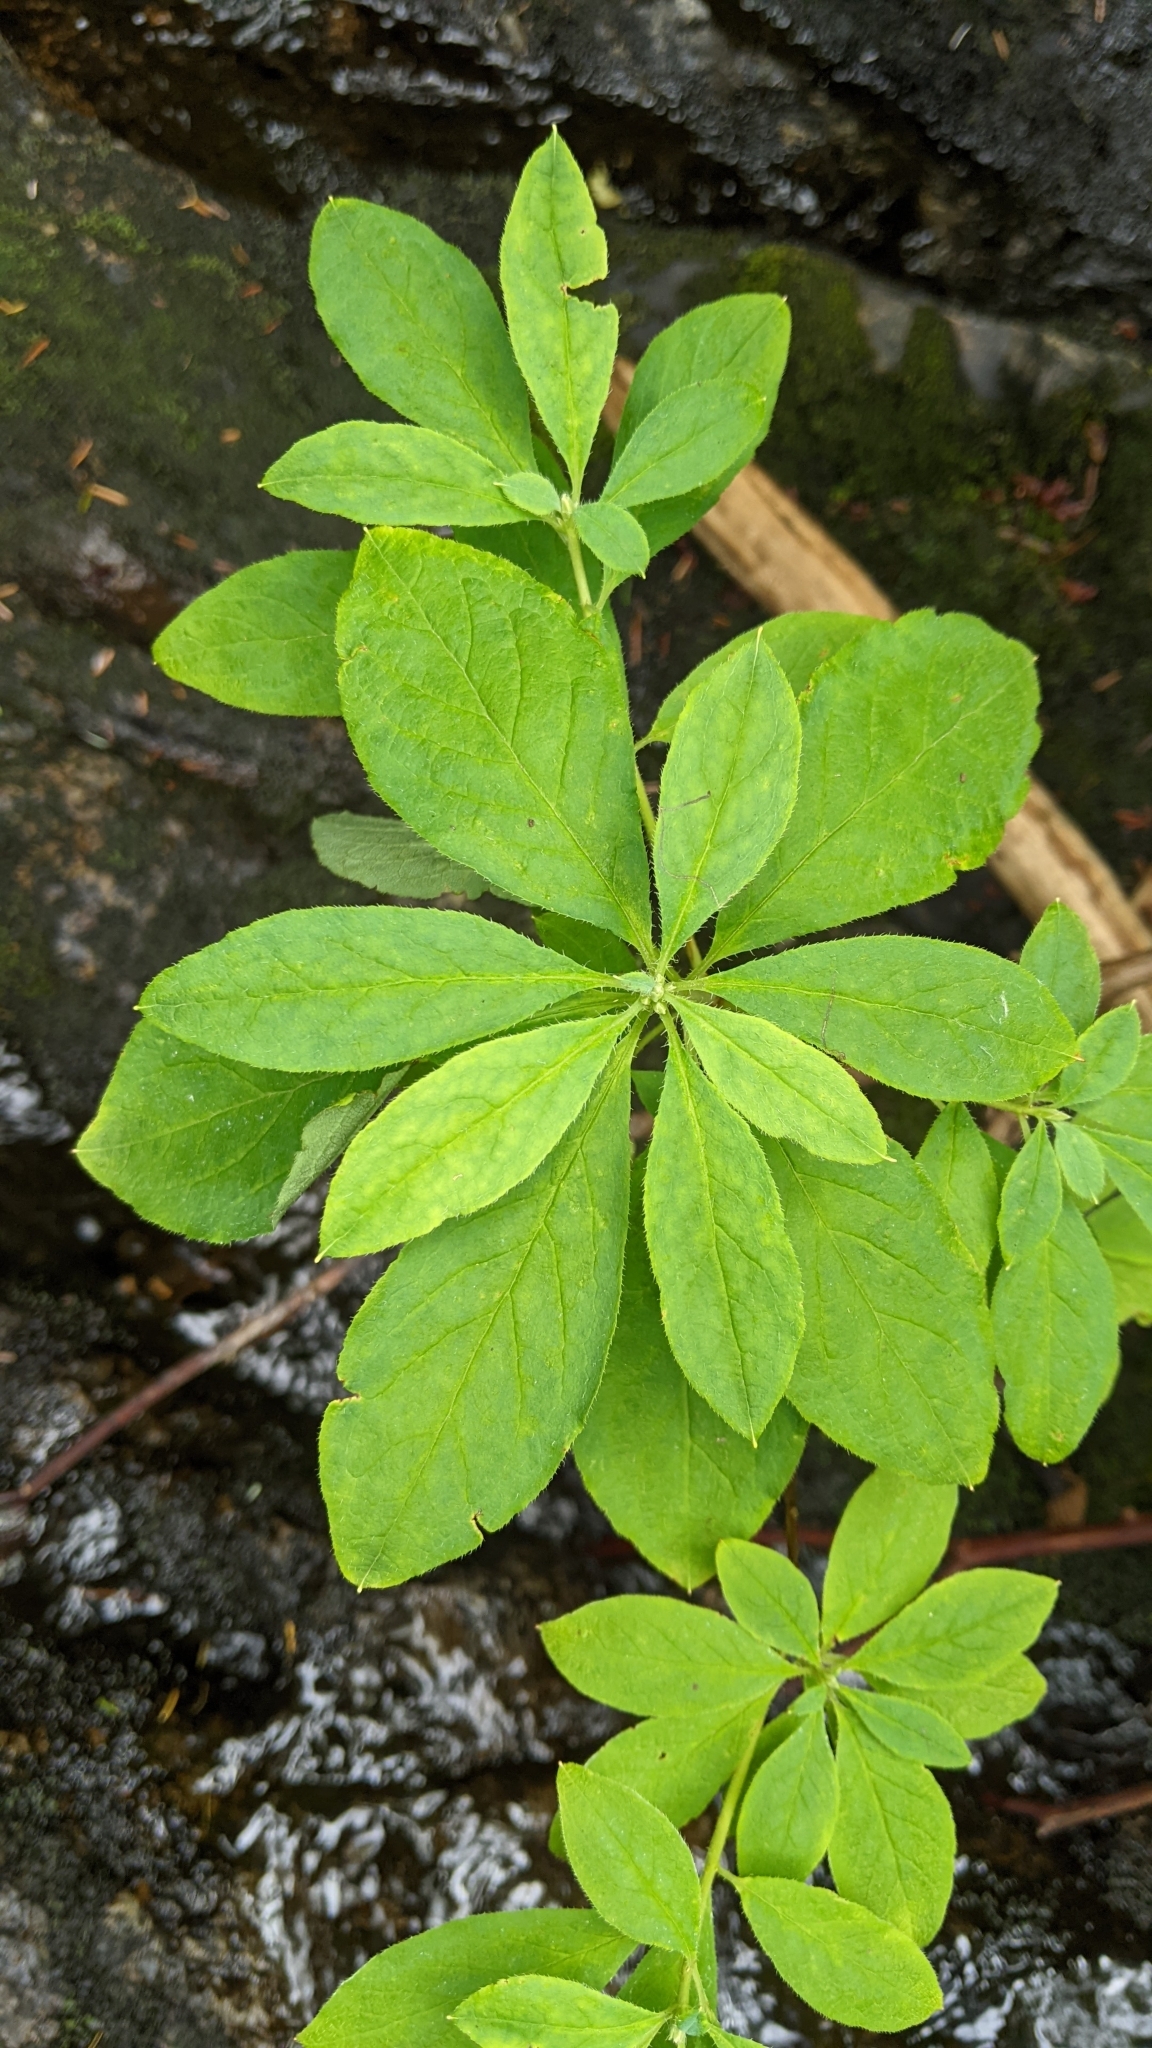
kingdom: Plantae
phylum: Tracheophyta
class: Magnoliopsida
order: Ericales
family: Ericaceae
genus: Rhododendron
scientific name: Rhododendron menziesii
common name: Pacific menziesia
